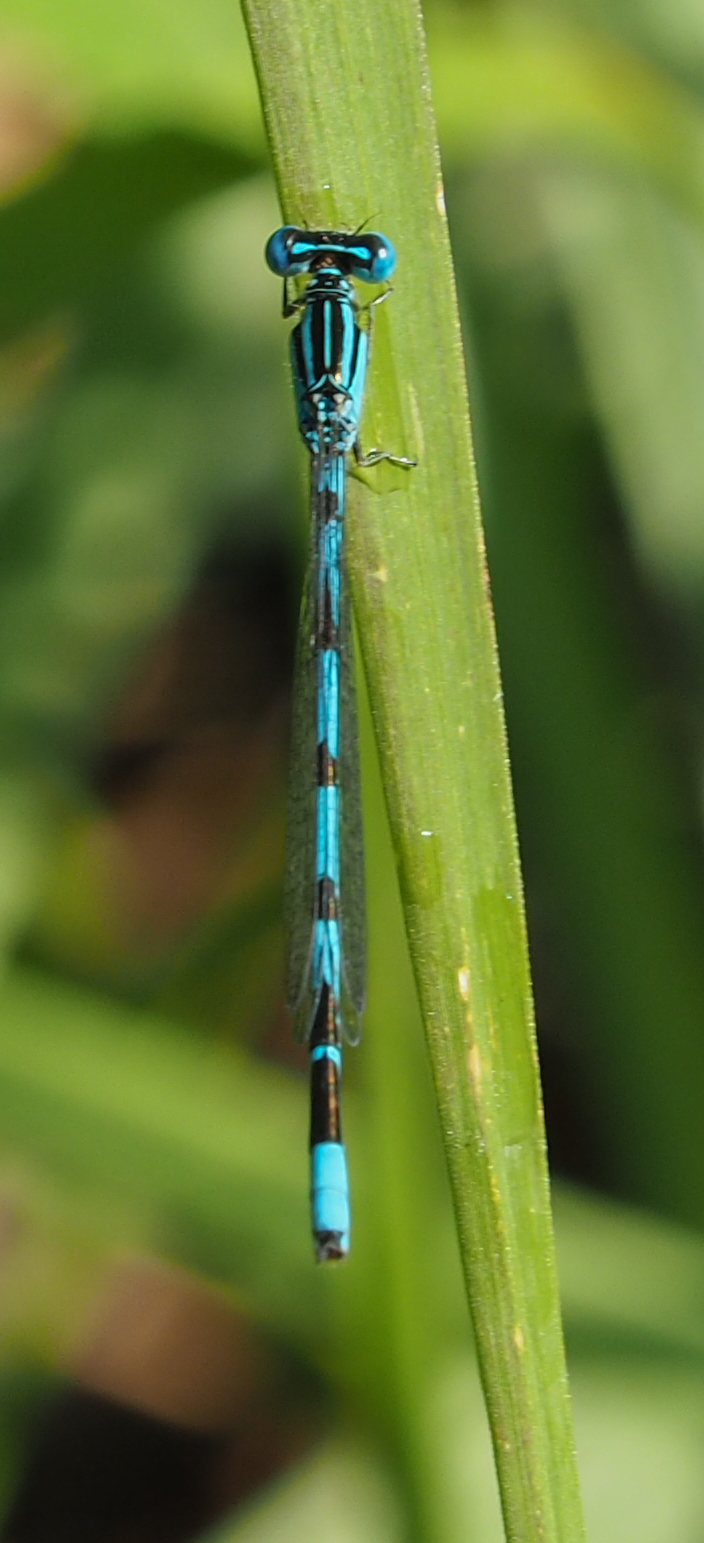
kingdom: Animalia
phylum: Arthropoda
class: Insecta
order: Odonata
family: Coenagrionidae
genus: Enallagma
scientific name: Enallagma durum
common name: Big bluet
